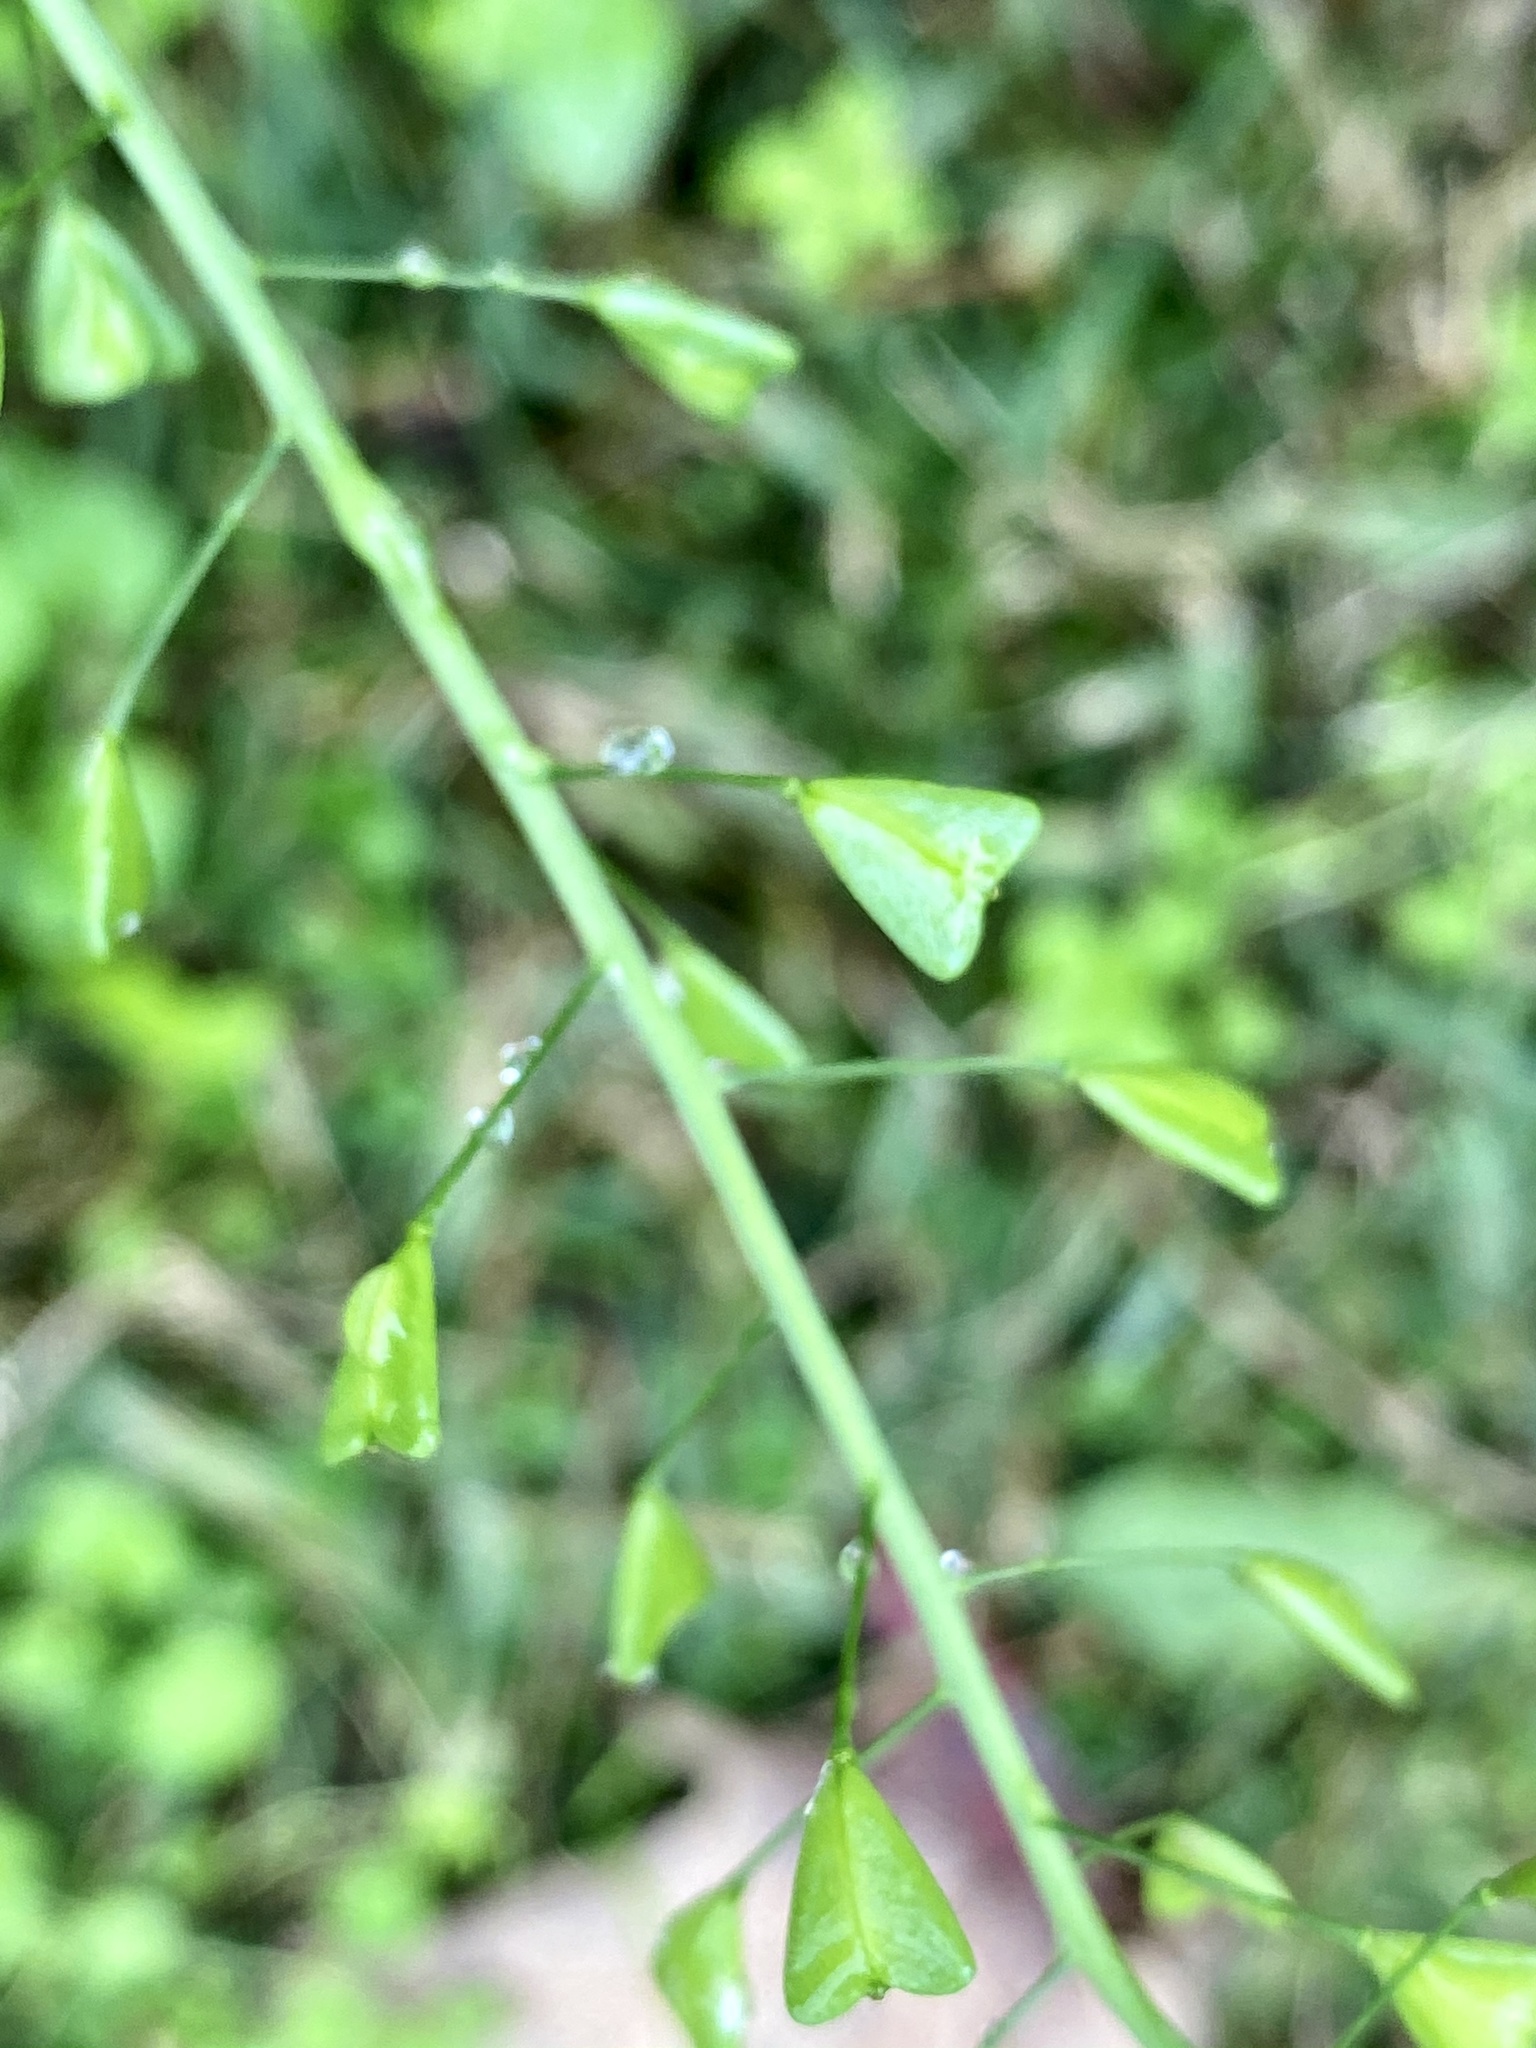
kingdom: Plantae
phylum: Tracheophyta
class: Magnoliopsida
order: Brassicales
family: Brassicaceae
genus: Capsella
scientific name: Capsella bursa-pastoris
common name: Shepherd's purse
